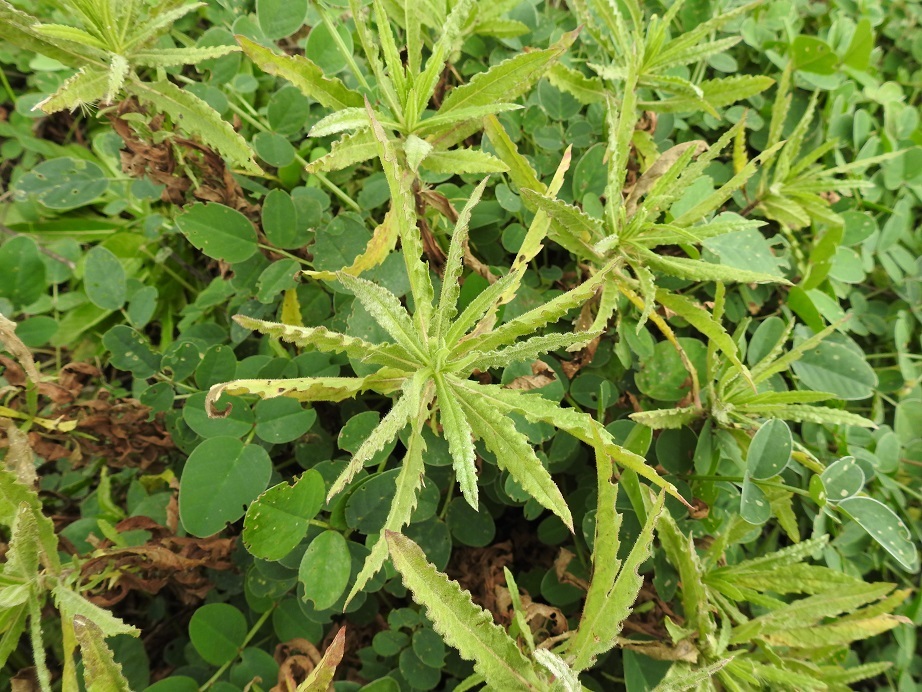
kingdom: Plantae
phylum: Tracheophyta
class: Magnoliopsida
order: Asterales
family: Asteraceae
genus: Dittrichia
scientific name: Dittrichia viscosa
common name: Woody fleabane
